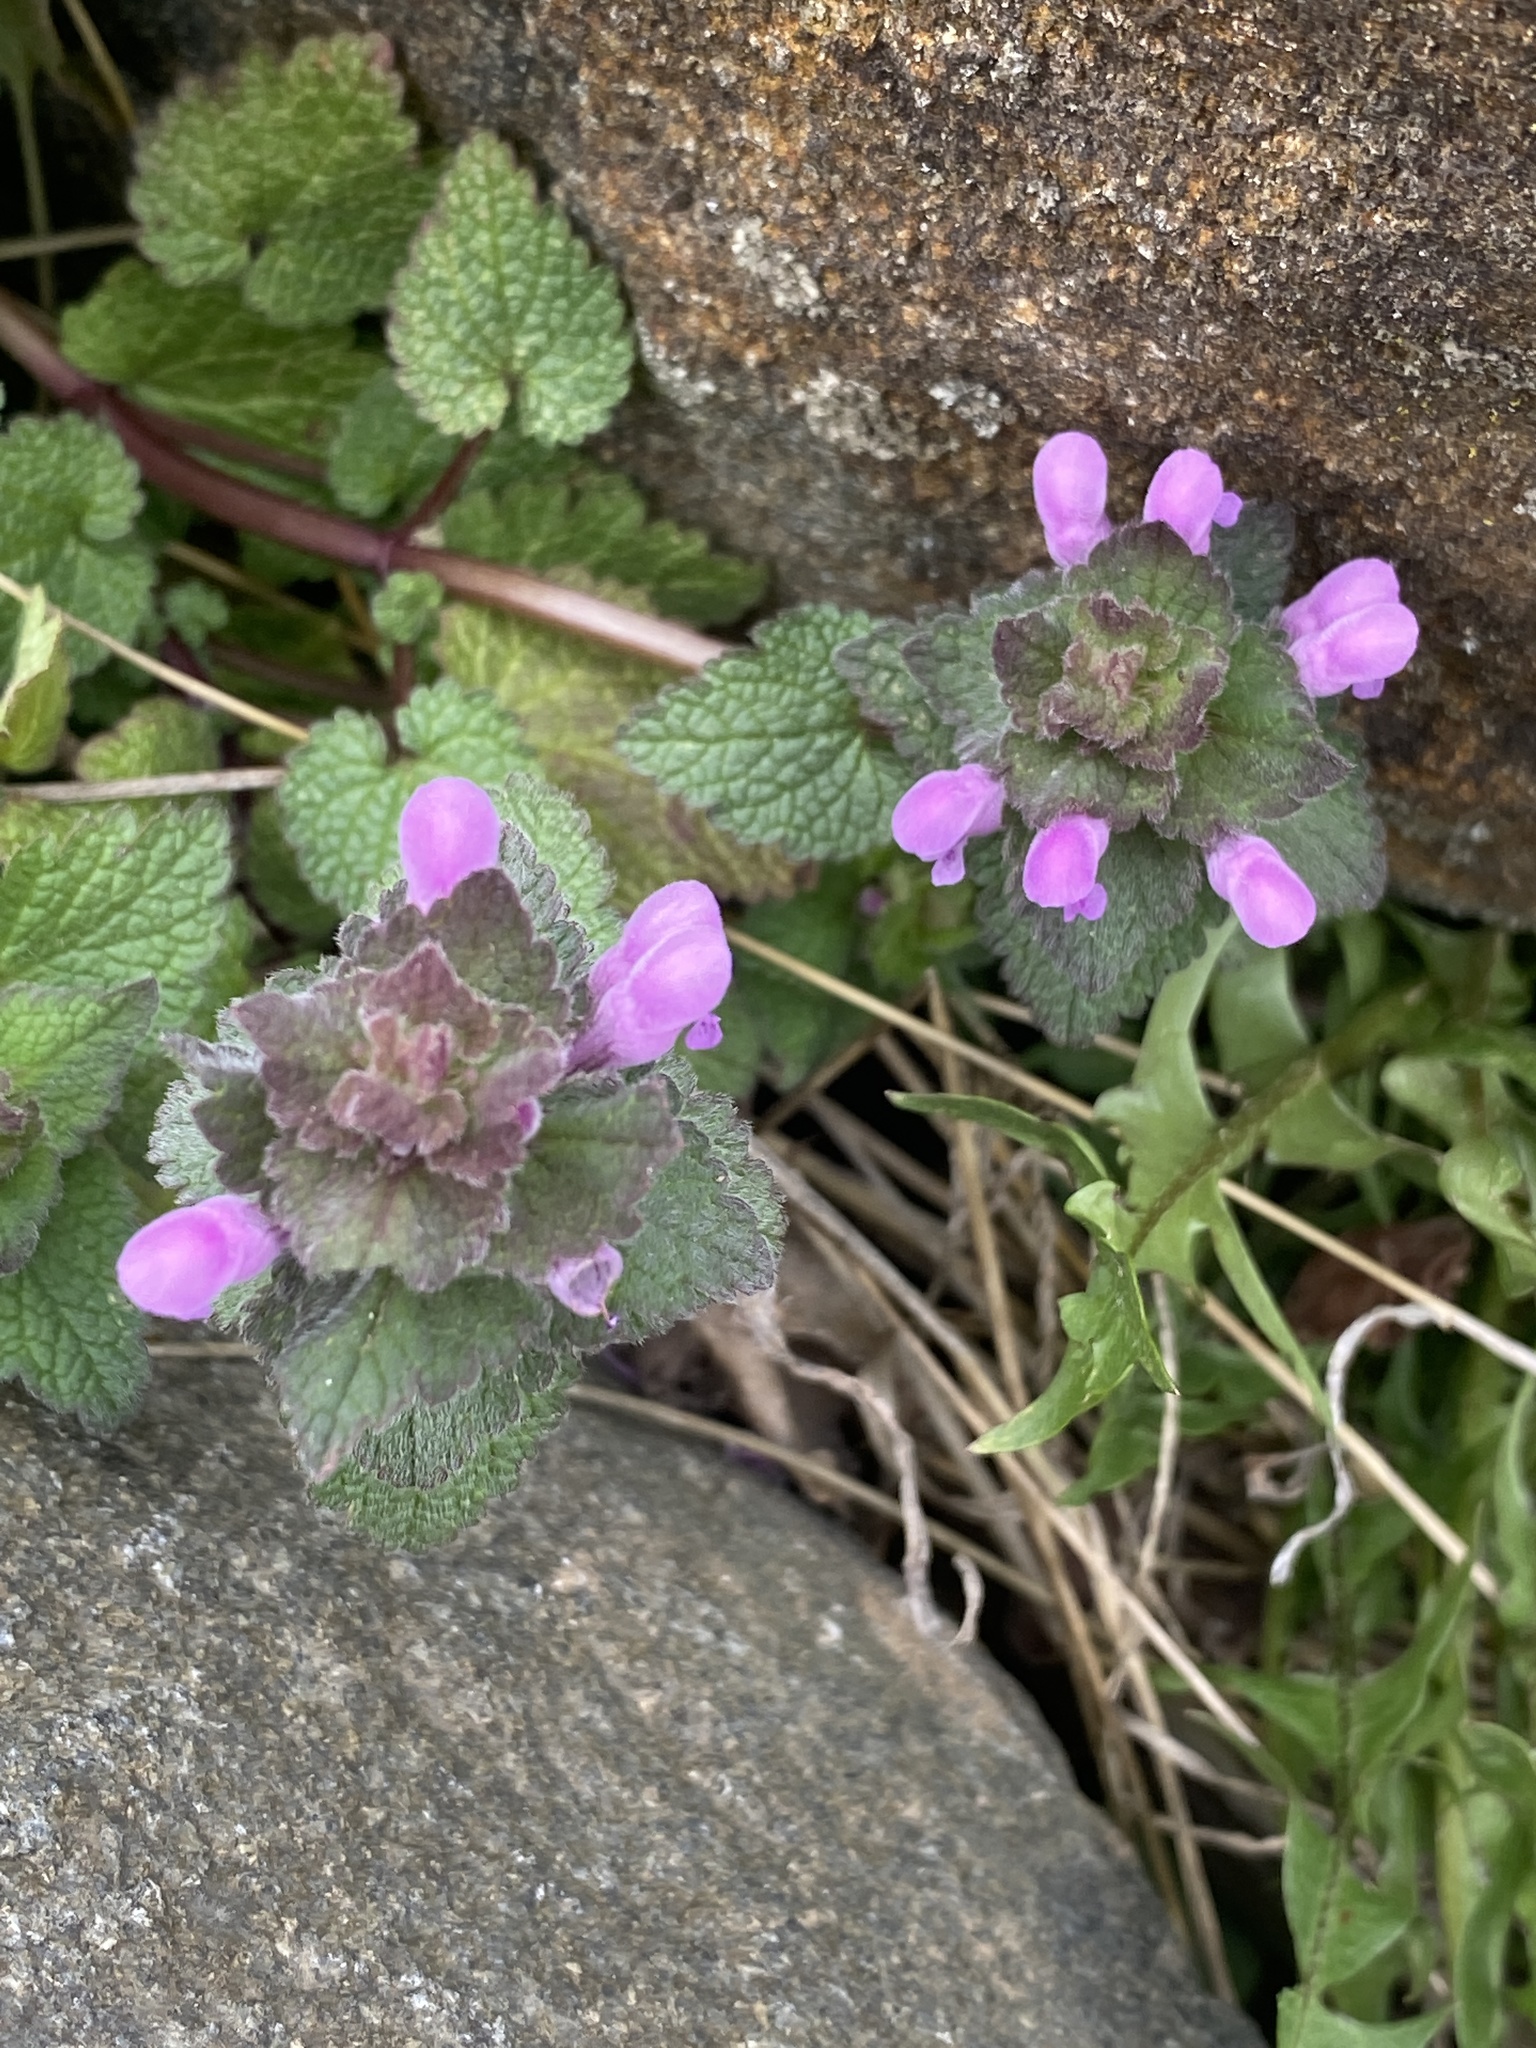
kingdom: Plantae
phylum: Tracheophyta
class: Magnoliopsida
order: Lamiales
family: Lamiaceae
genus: Lamium
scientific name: Lamium purpureum
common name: Red dead-nettle
